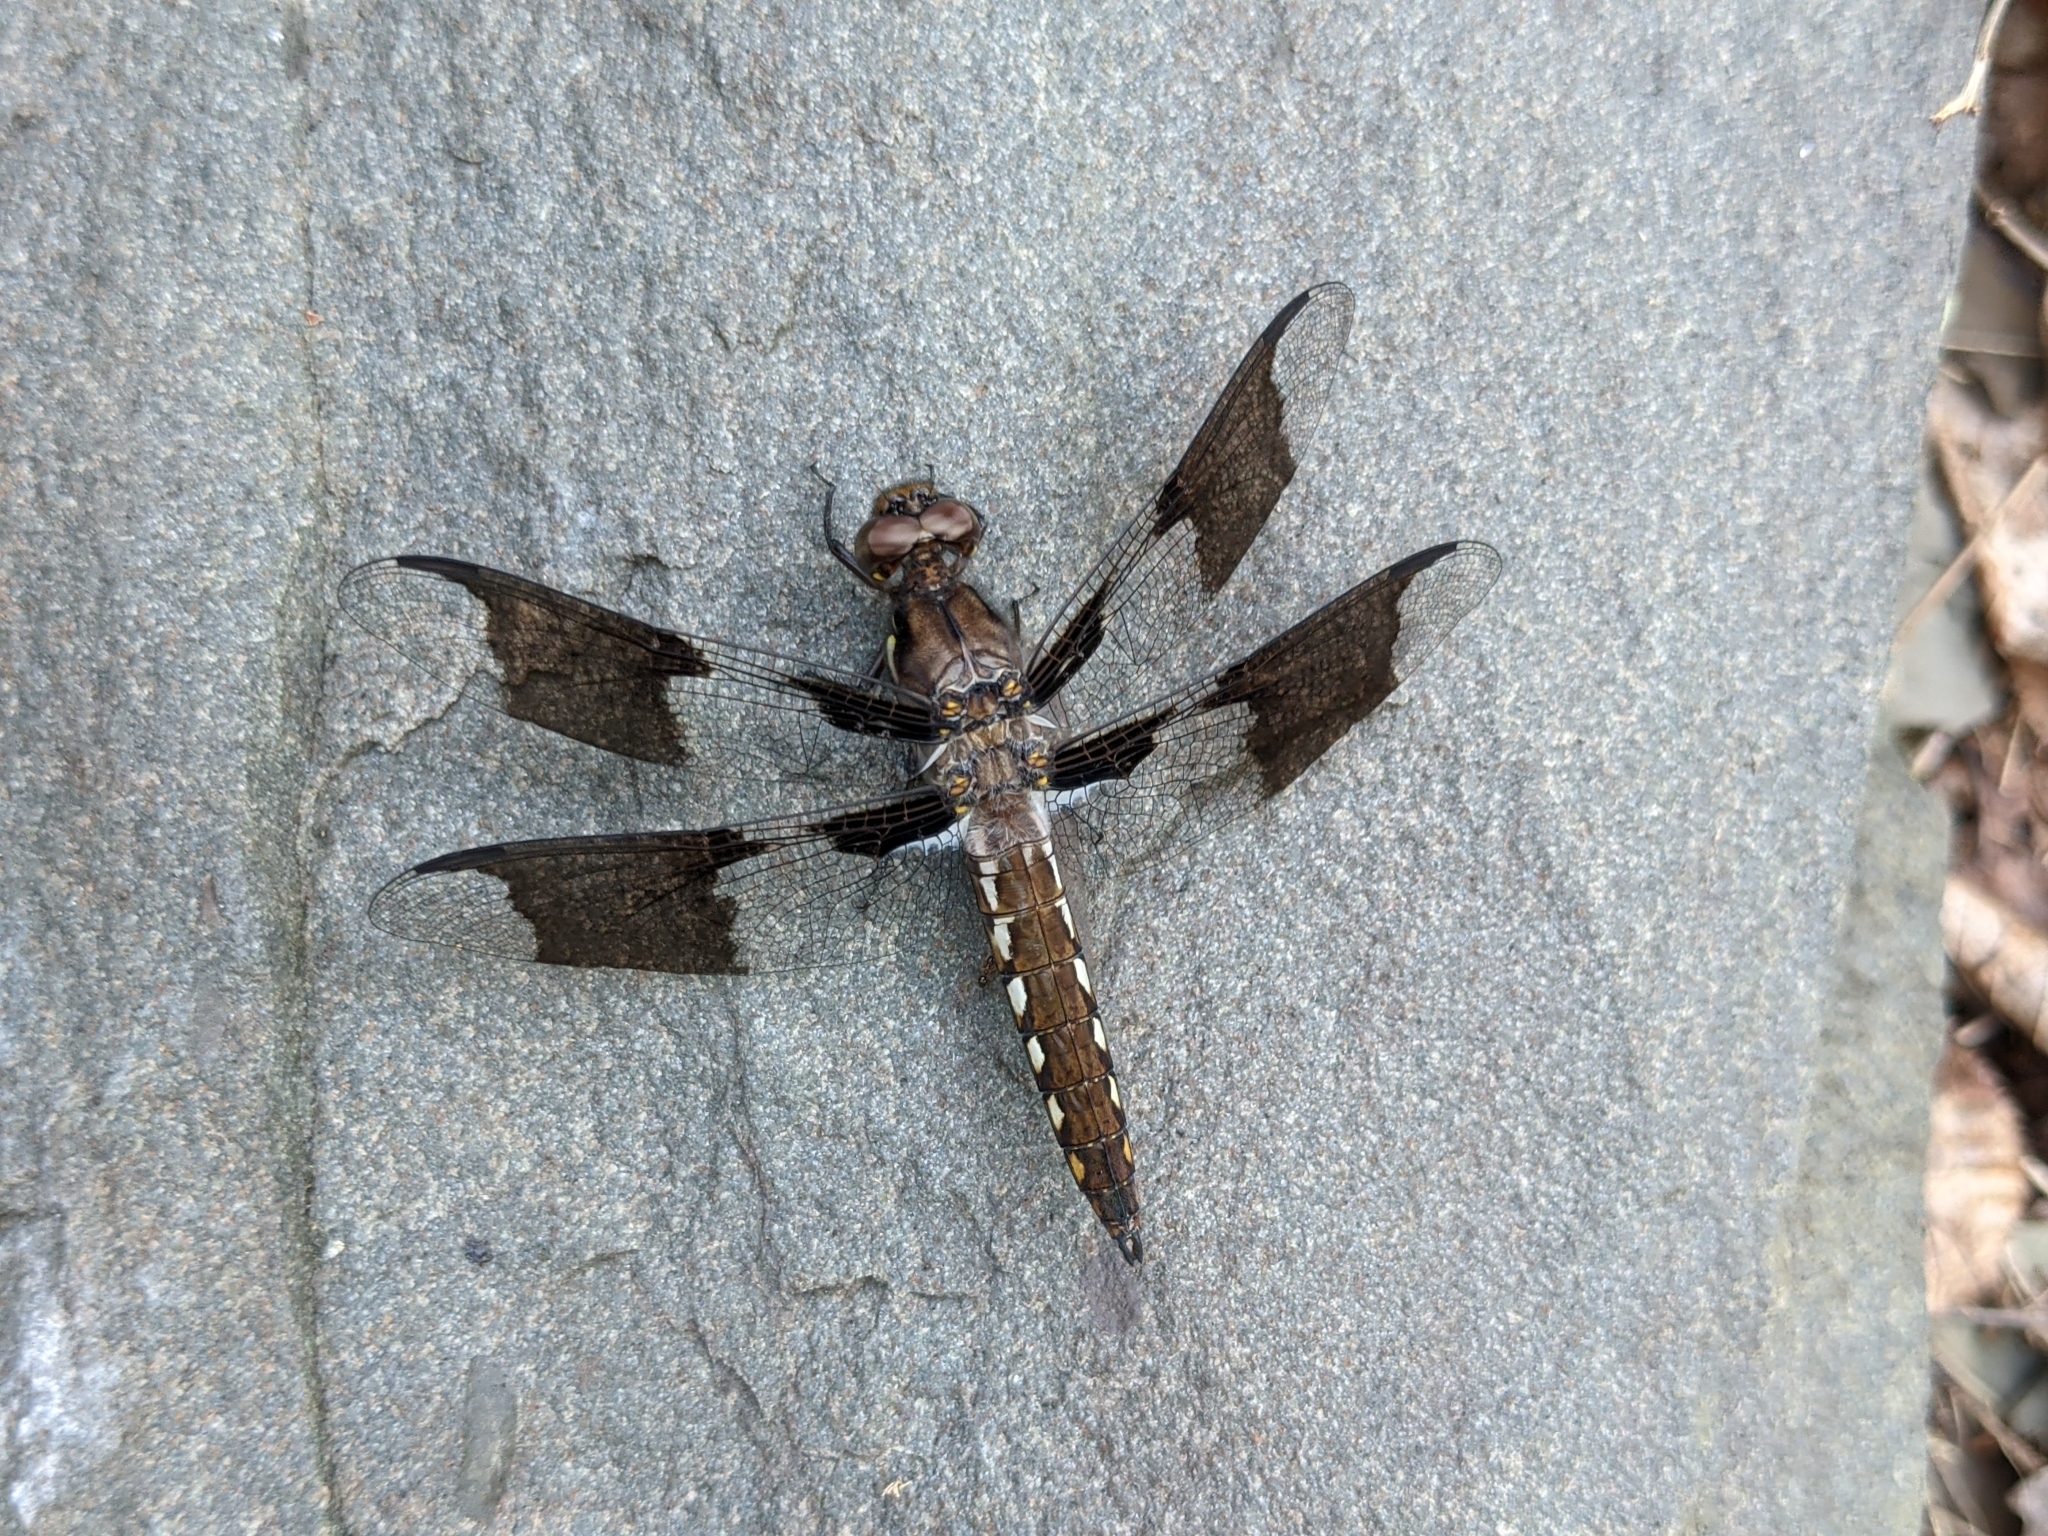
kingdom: Animalia
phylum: Arthropoda
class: Insecta
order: Odonata
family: Libellulidae
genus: Plathemis
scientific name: Plathemis lydia
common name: Common whitetail
